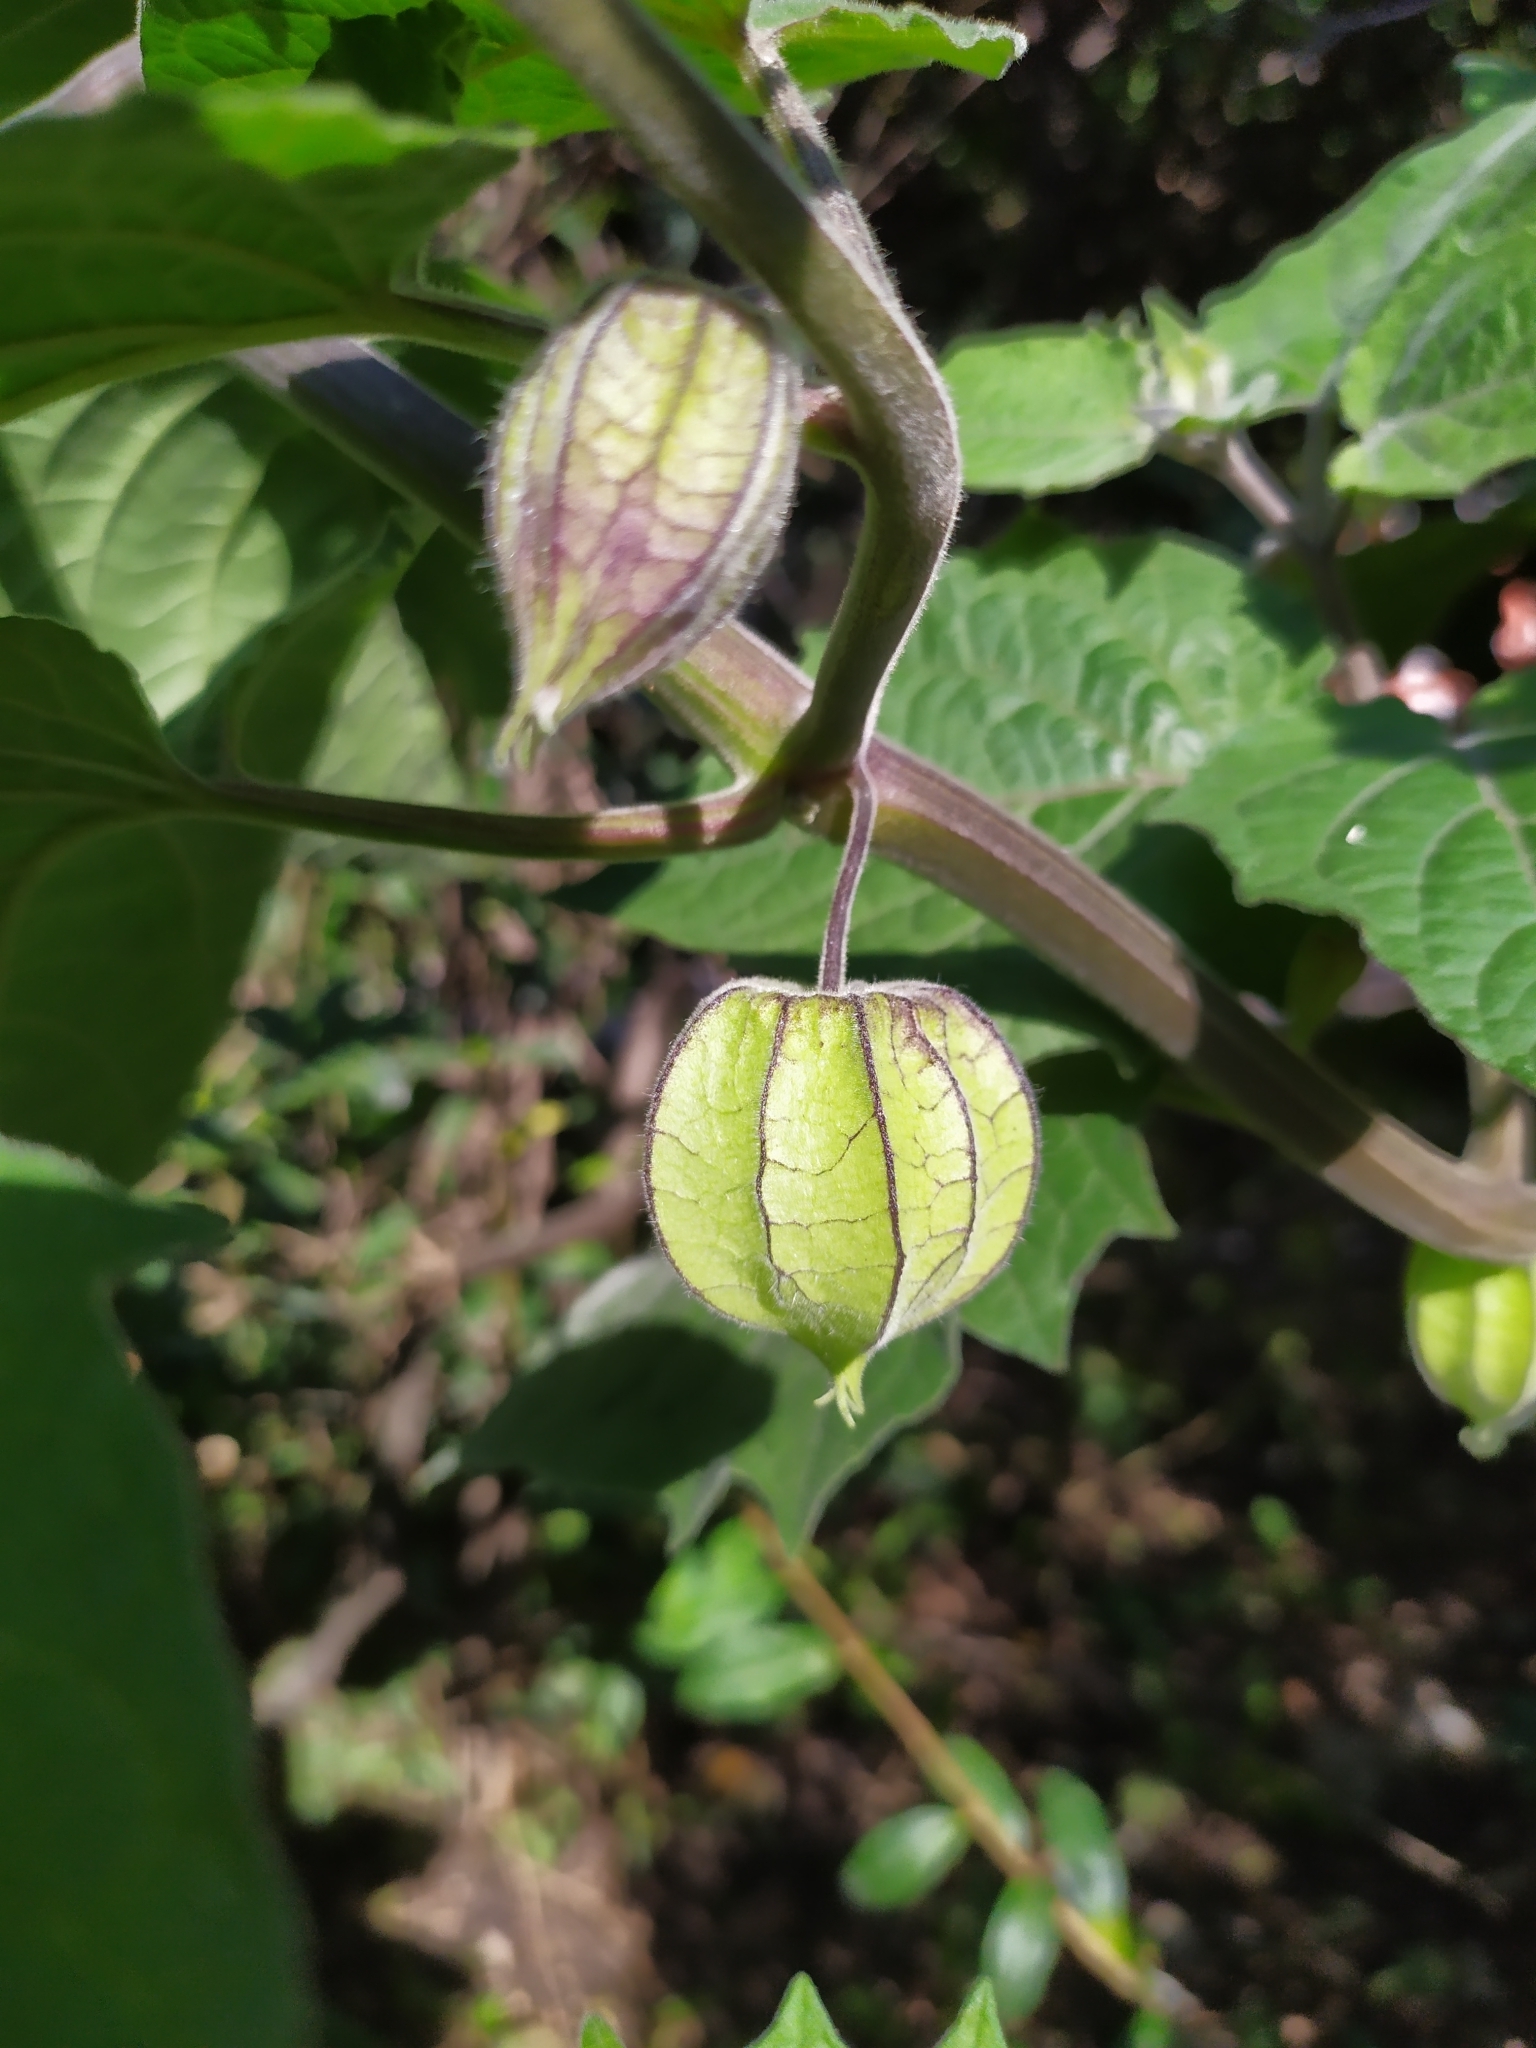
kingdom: Plantae
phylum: Tracheophyta
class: Magnoliopsida
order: Solanales
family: Solanaceae
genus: Physalis
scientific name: Physalis peruviana
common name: Cape-gooseberry
